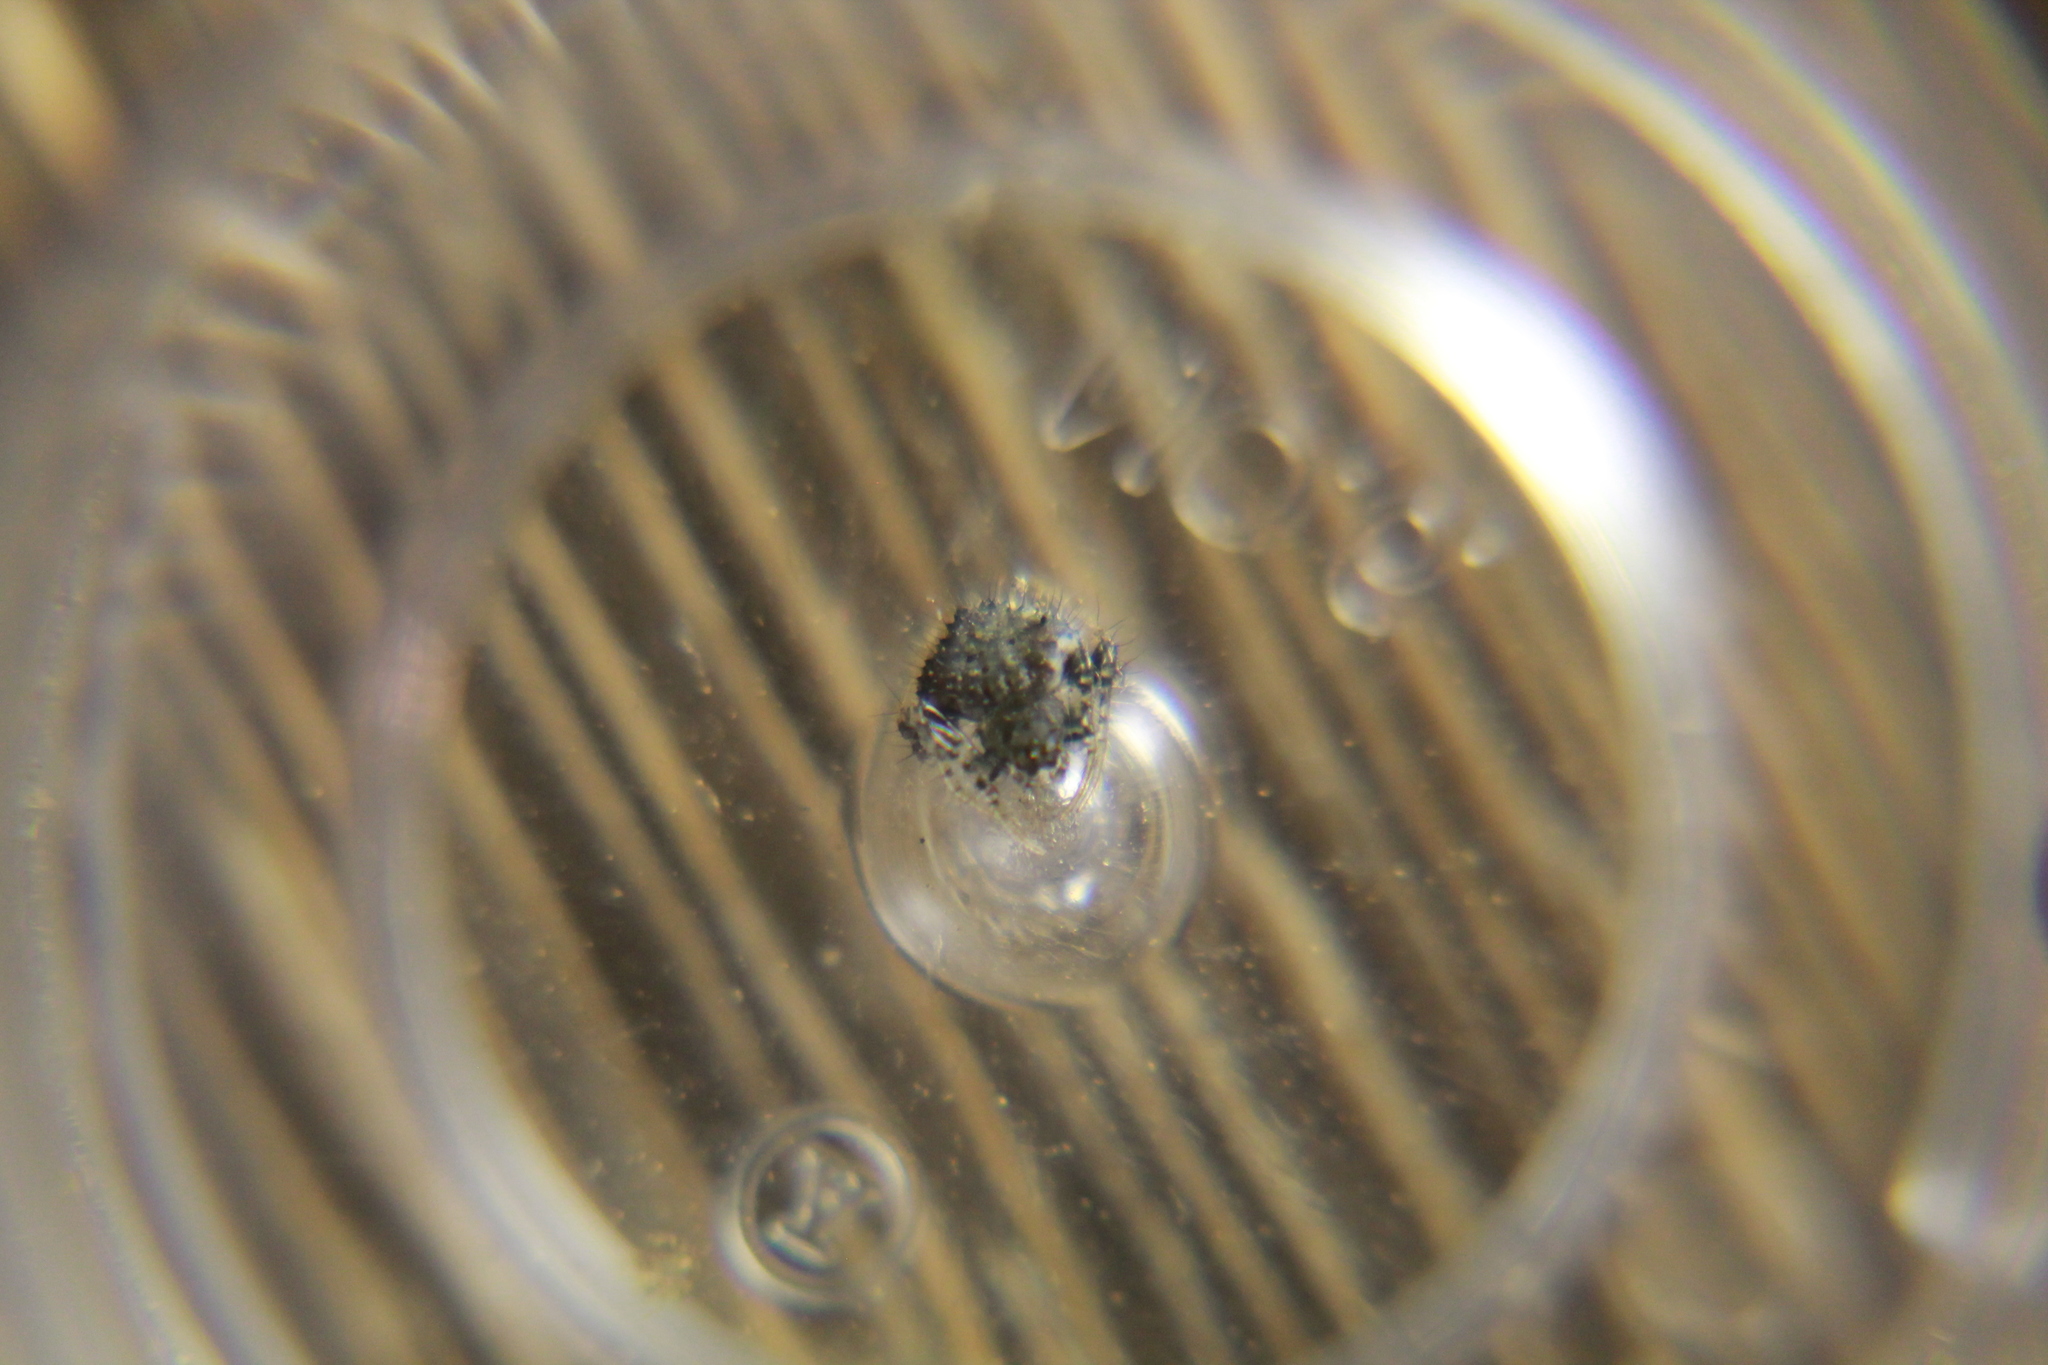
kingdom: Animalia
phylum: Arthropoda
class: Arachnida
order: Araneae
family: Araneidae
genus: Poecilopachys
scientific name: Poecilopachys australasia
